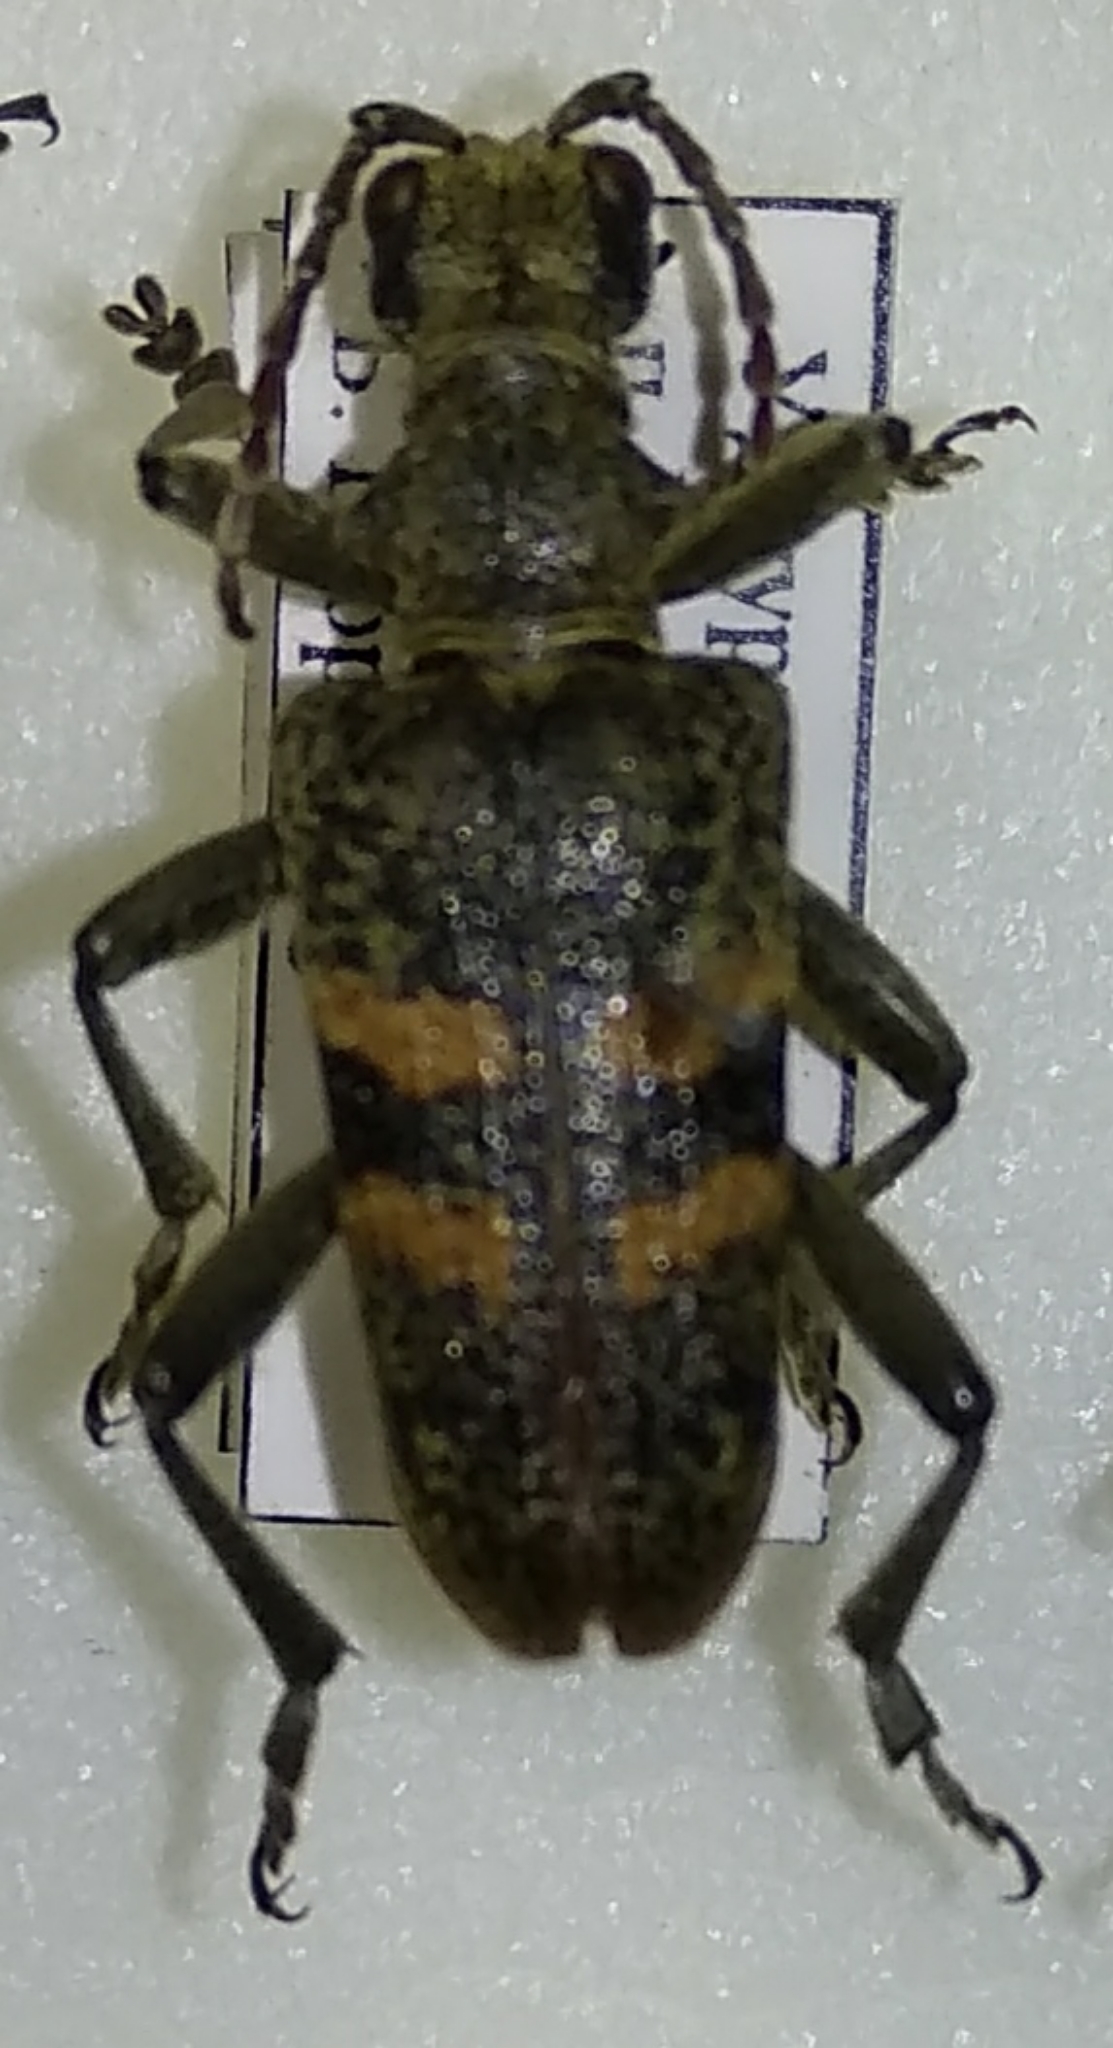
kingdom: Animalia
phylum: Arthropoda
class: Insecta
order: Coleoptera
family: Cerambycidae
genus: Rhagium
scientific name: Rhagium mordax
